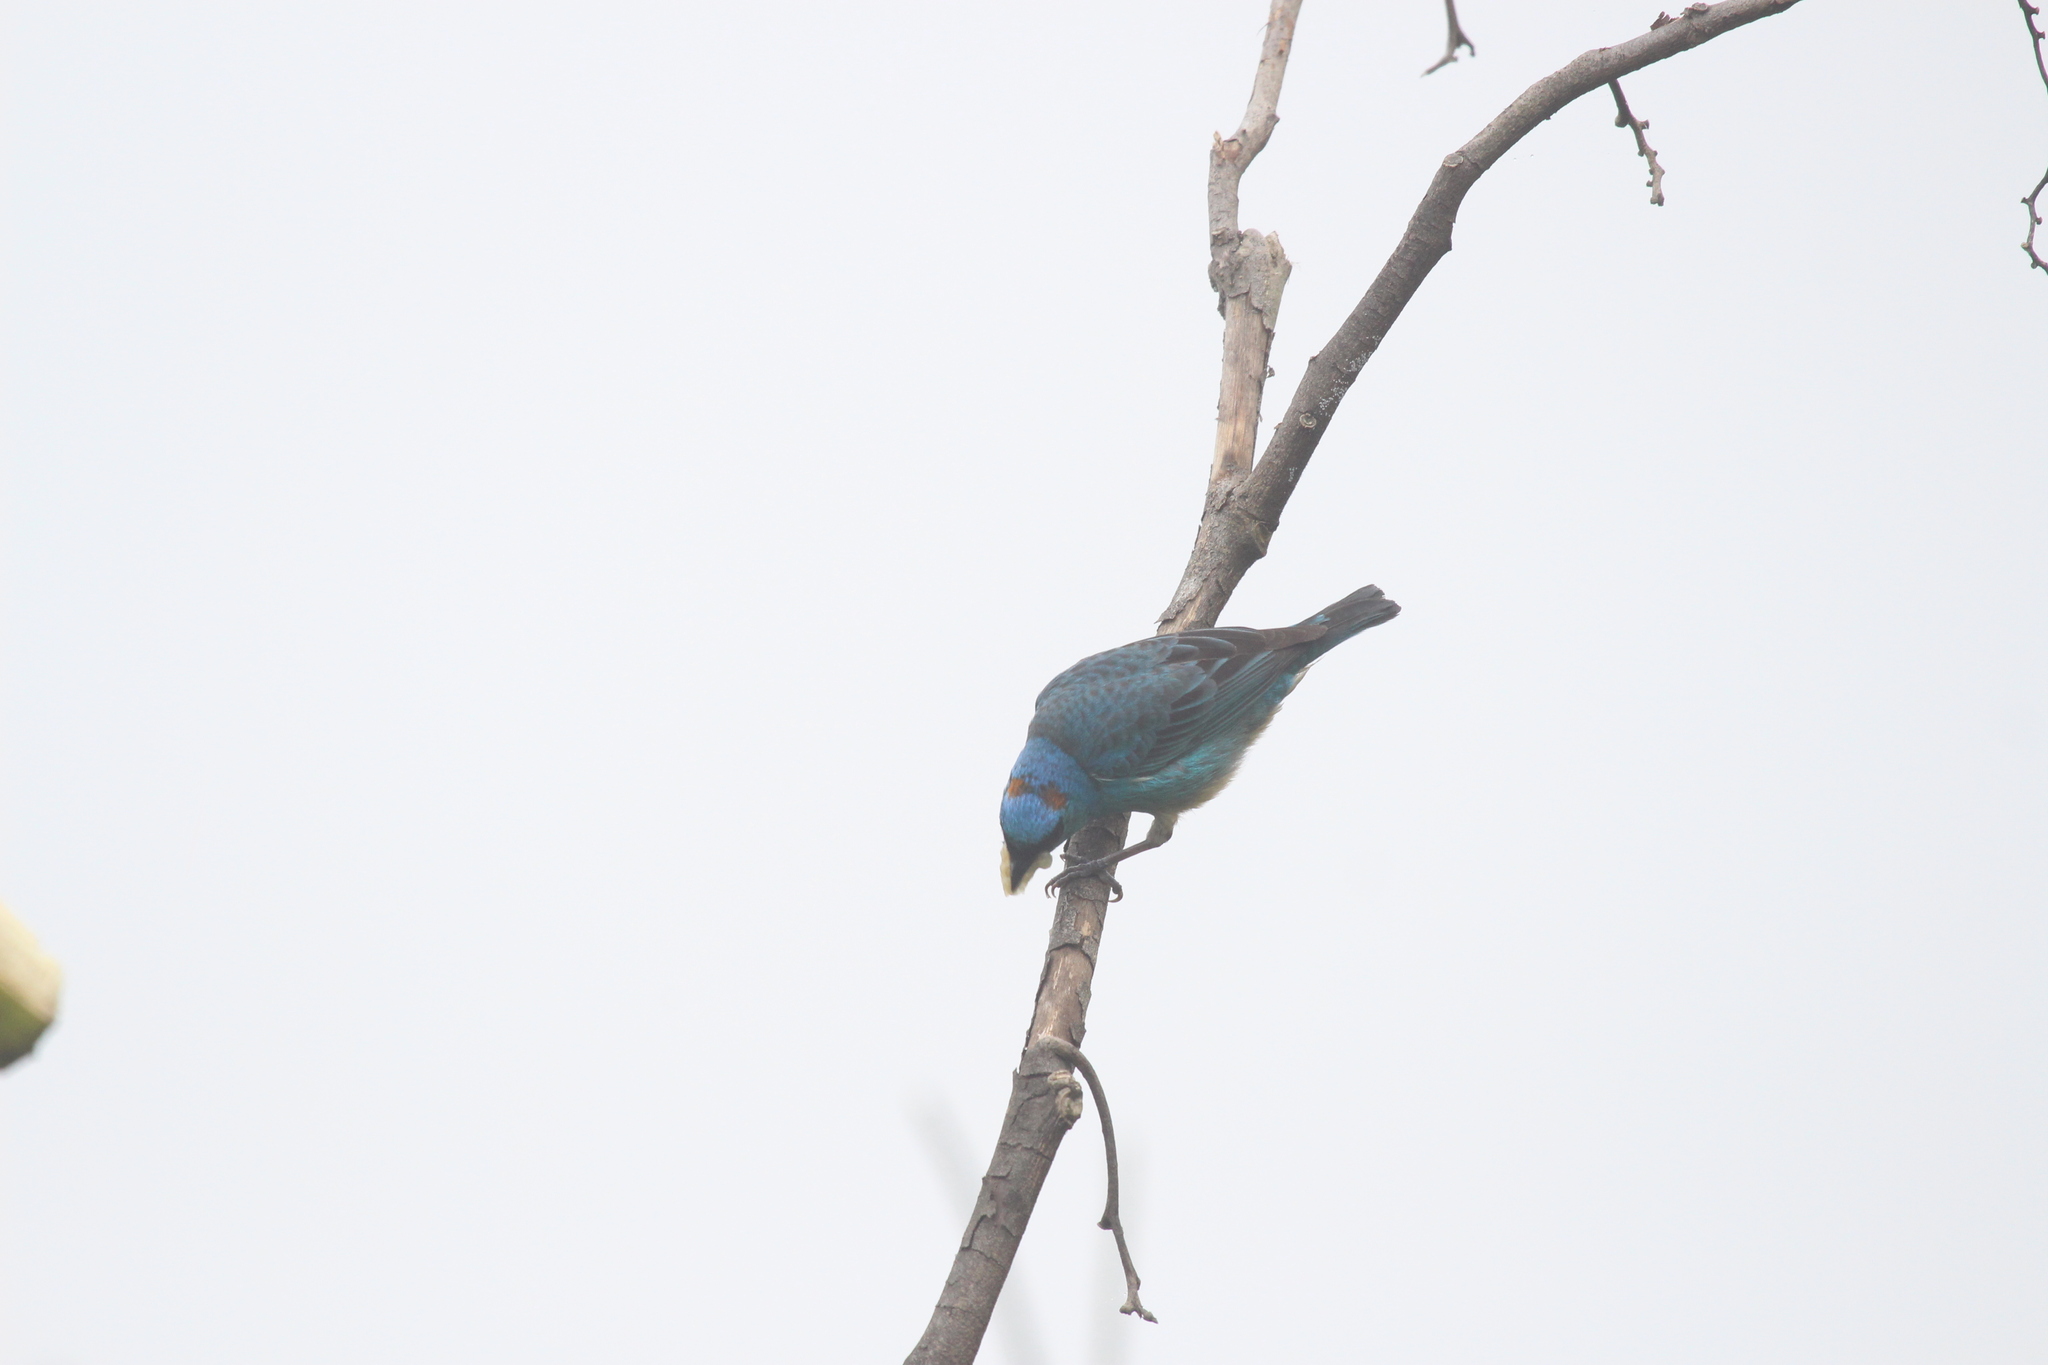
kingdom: Animalia
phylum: Chordata
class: Aves
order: Passeriformes
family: Thraupidae
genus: Chalcothraupis
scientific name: Chalcothraupis ruficervix
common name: Golden-naped tanager
